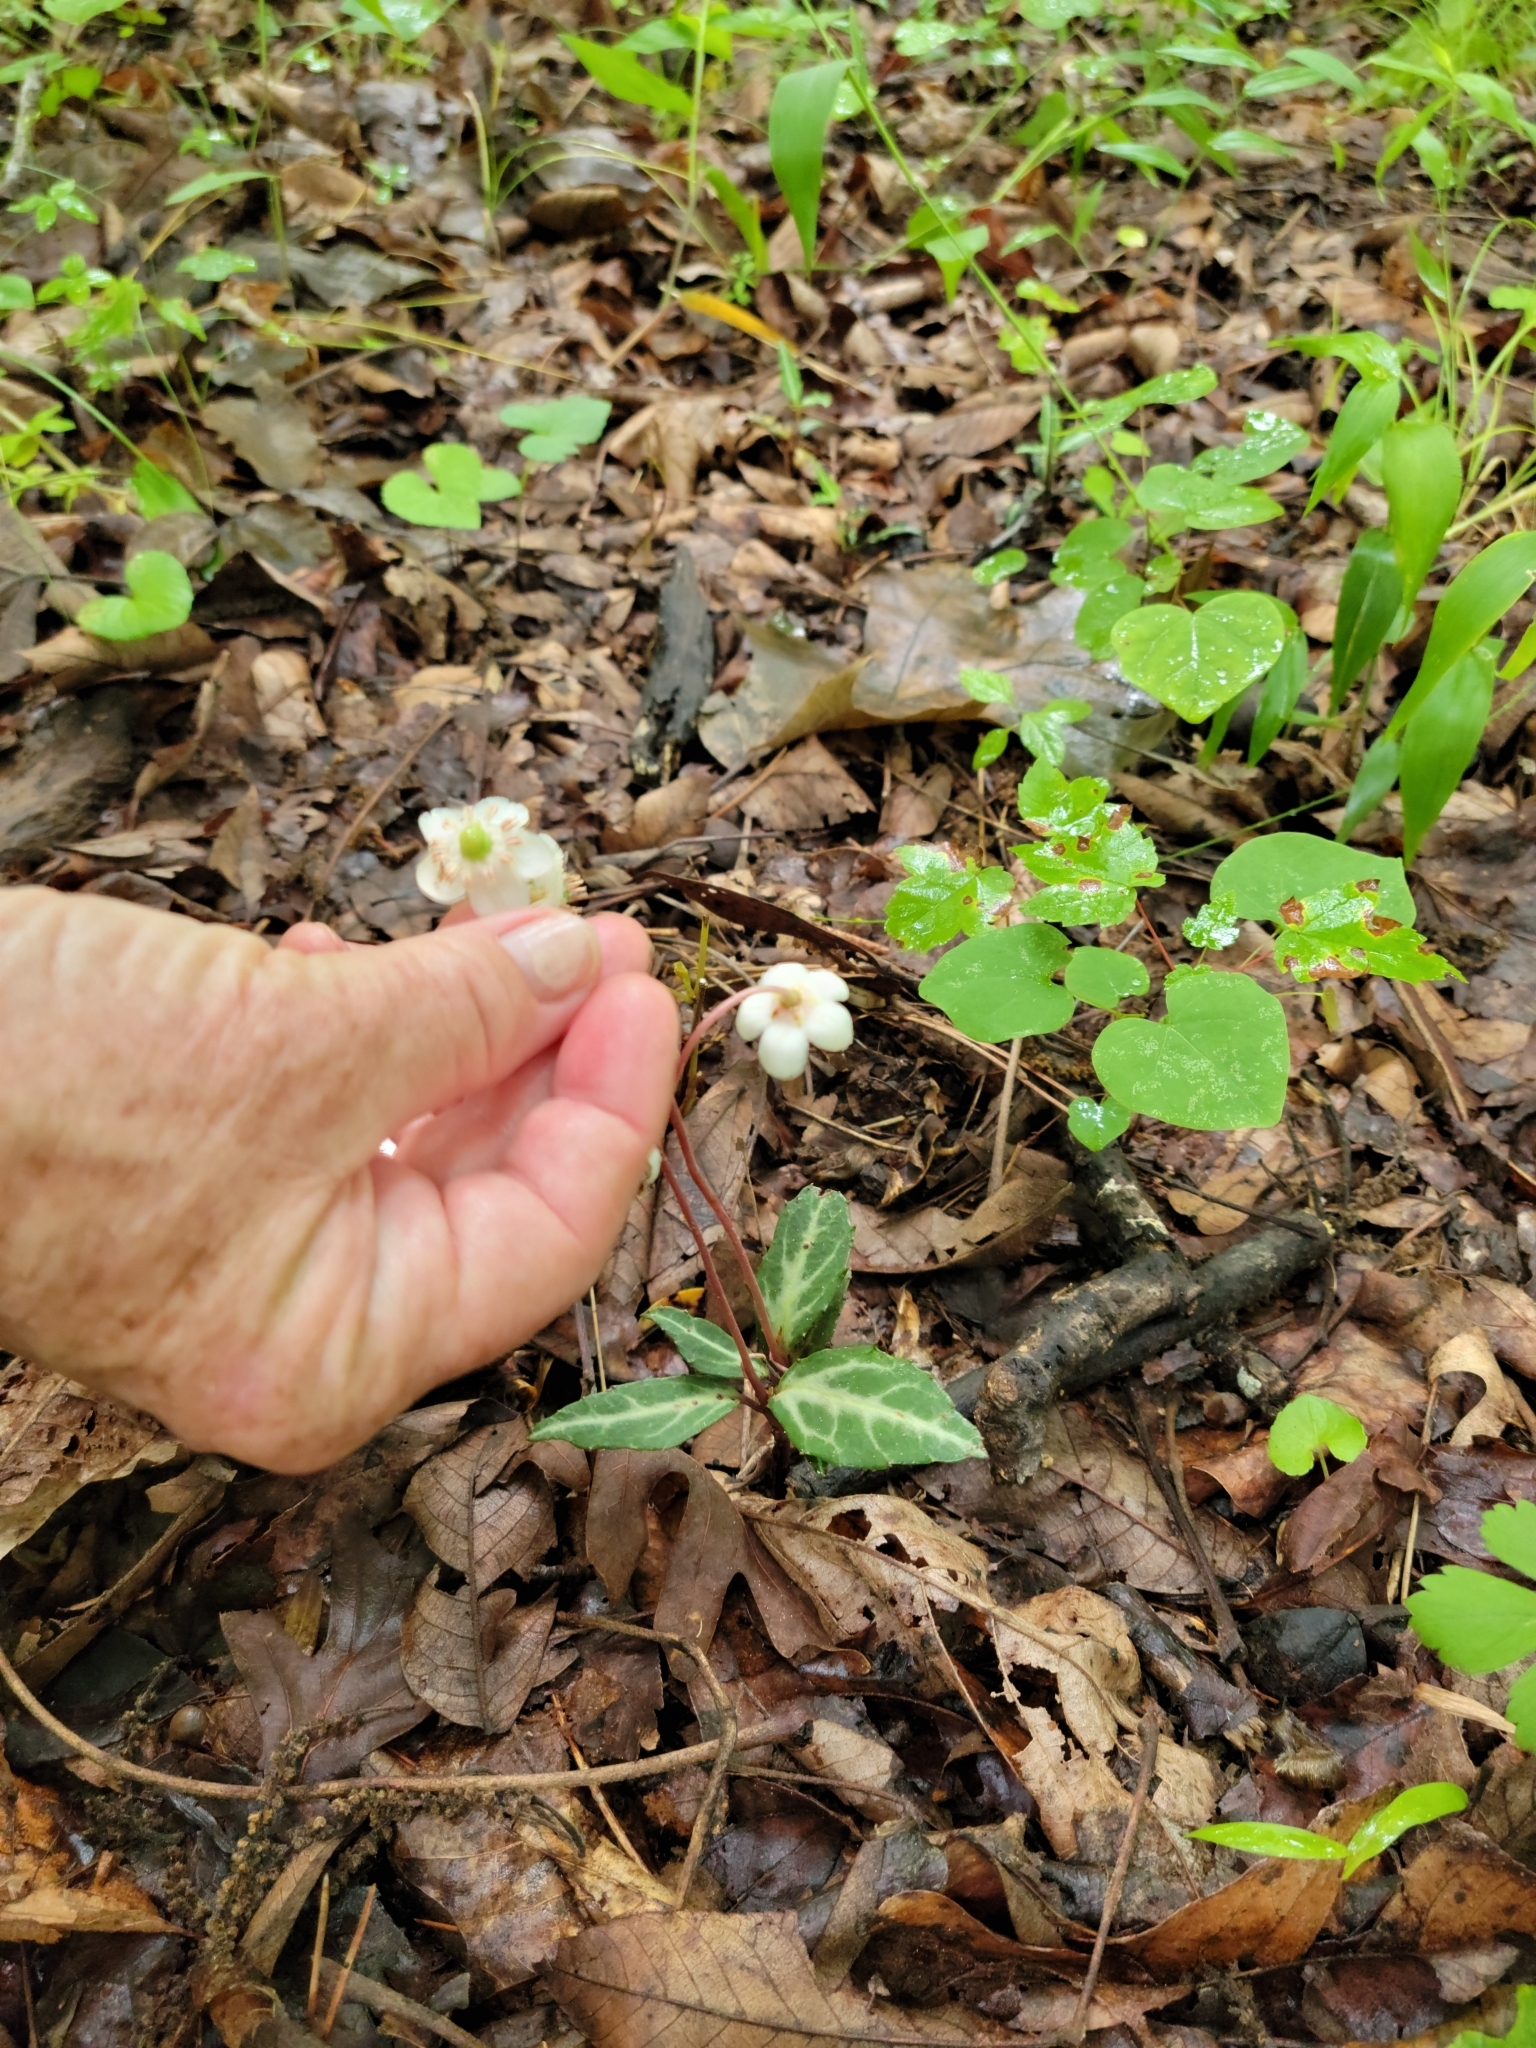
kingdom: Plantae
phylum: Tracheophyta
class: Magnoliopsida
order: Ericales
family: Ericaceae
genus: Chimaphila
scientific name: Chimaphila maculata
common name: Spotted pipsissewa
